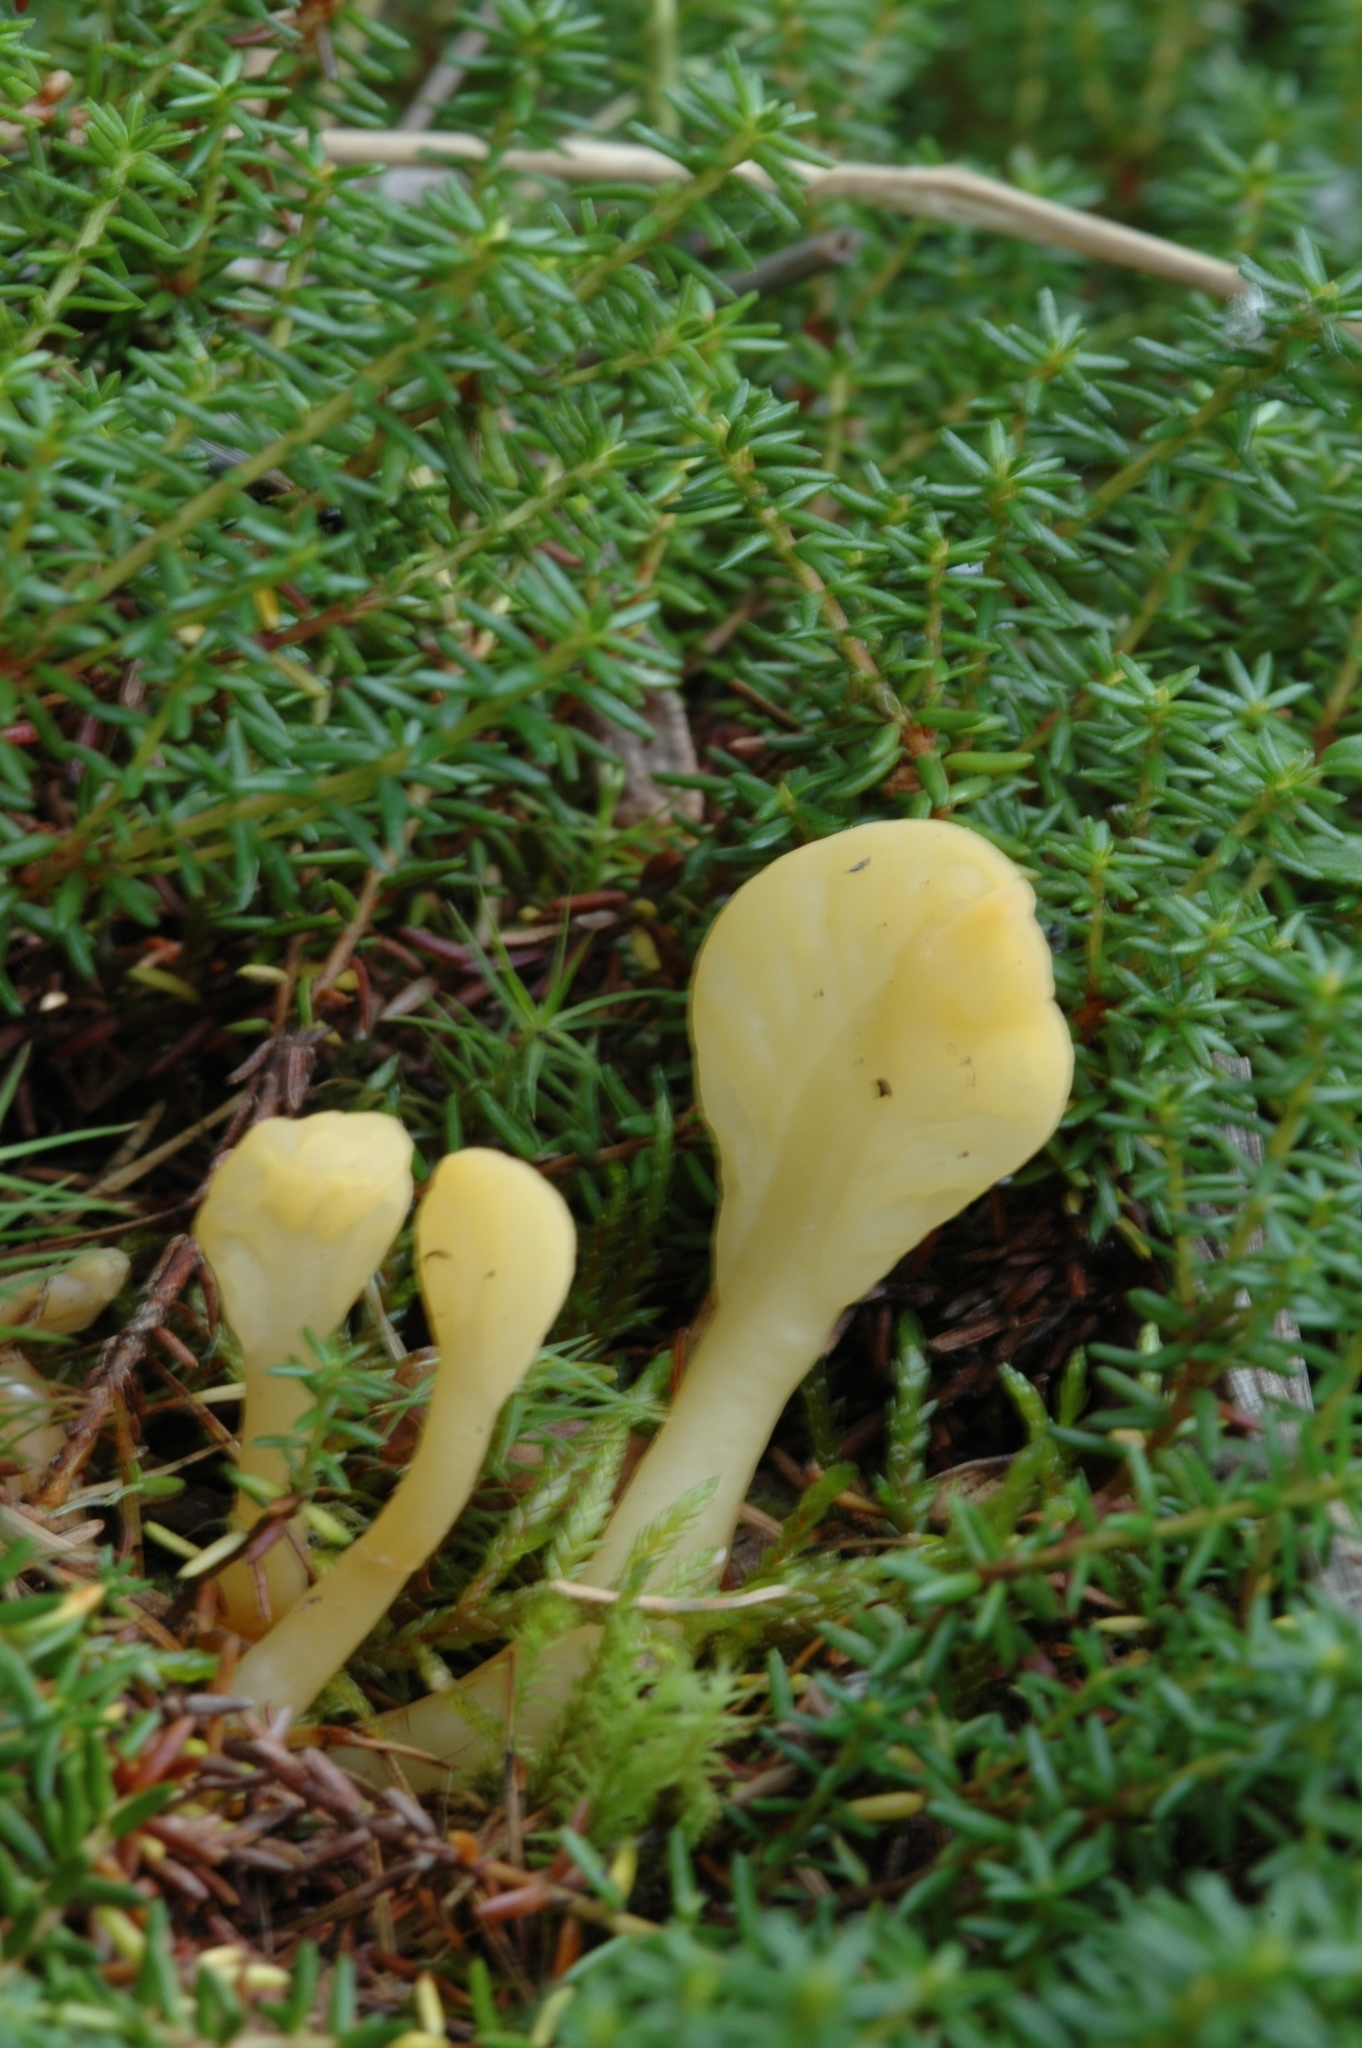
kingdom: Fungi
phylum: Ascomycota
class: Leotiomycetes
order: Rhytismatales
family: Cudoniaceae
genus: Spathularia
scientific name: Spathularia flavida
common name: Yellow fan
